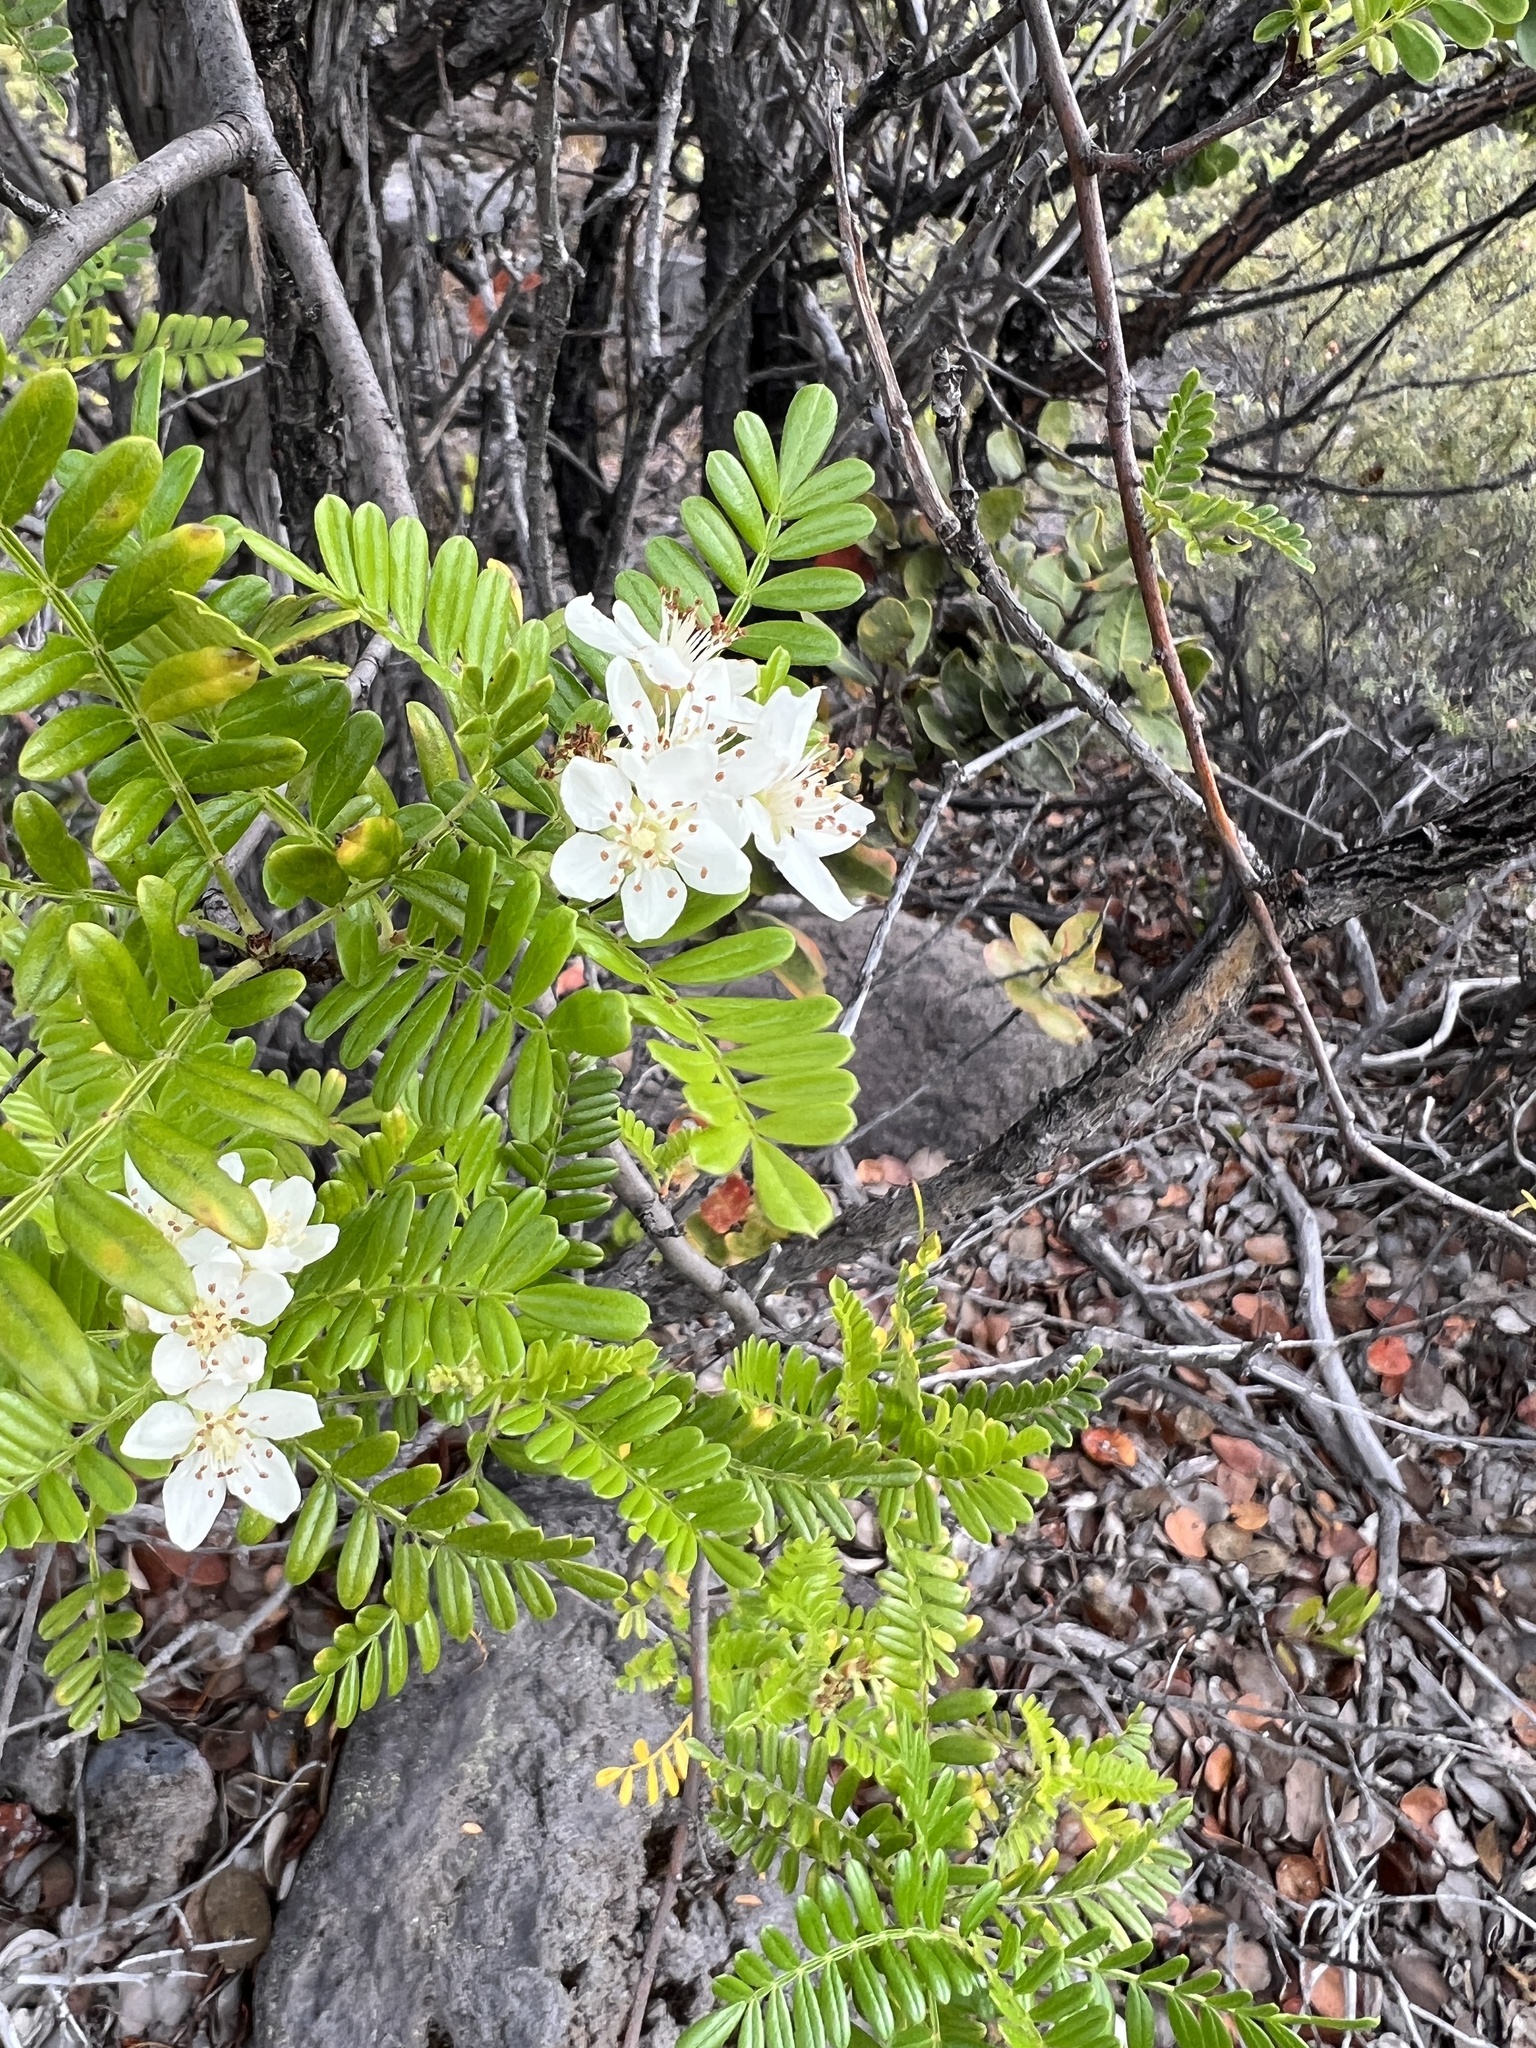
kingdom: Plantae
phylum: Tracheophyta
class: Magnoliopsida
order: Rosales
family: Rosaceae
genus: Osteomeles
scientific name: Osteomeles anthyllidifolia
